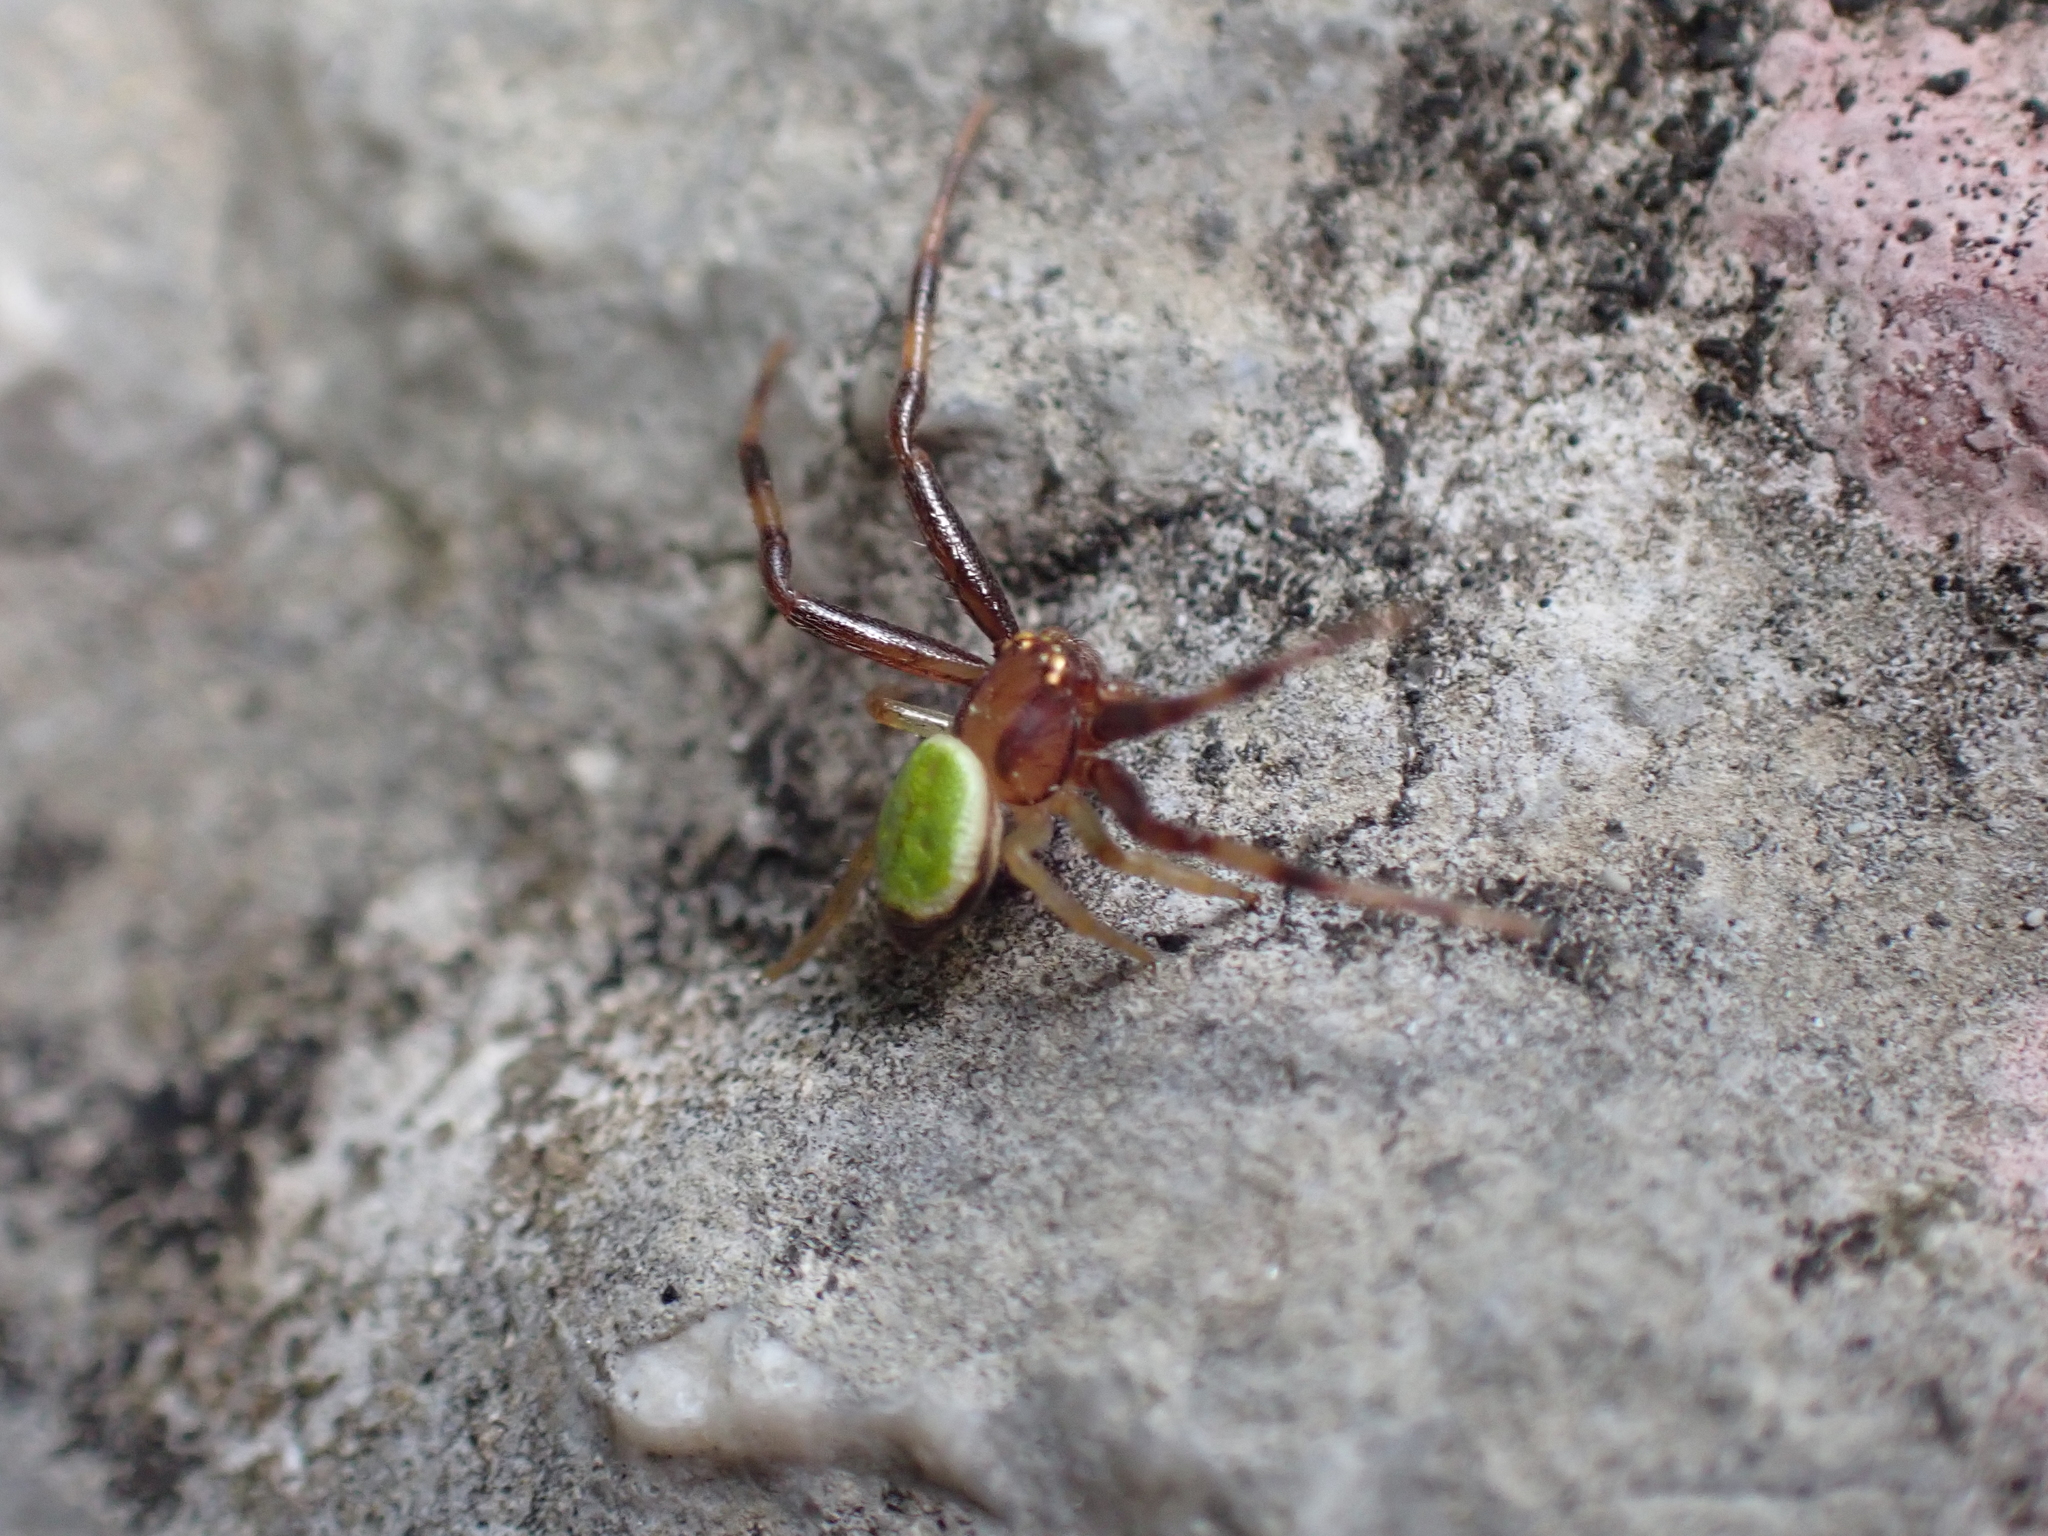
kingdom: Animalia
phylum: Arthropoda
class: Arachnida
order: Araneae
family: Thomisidae
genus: Ebrechtella
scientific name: Ebrechtella tricuspidata
